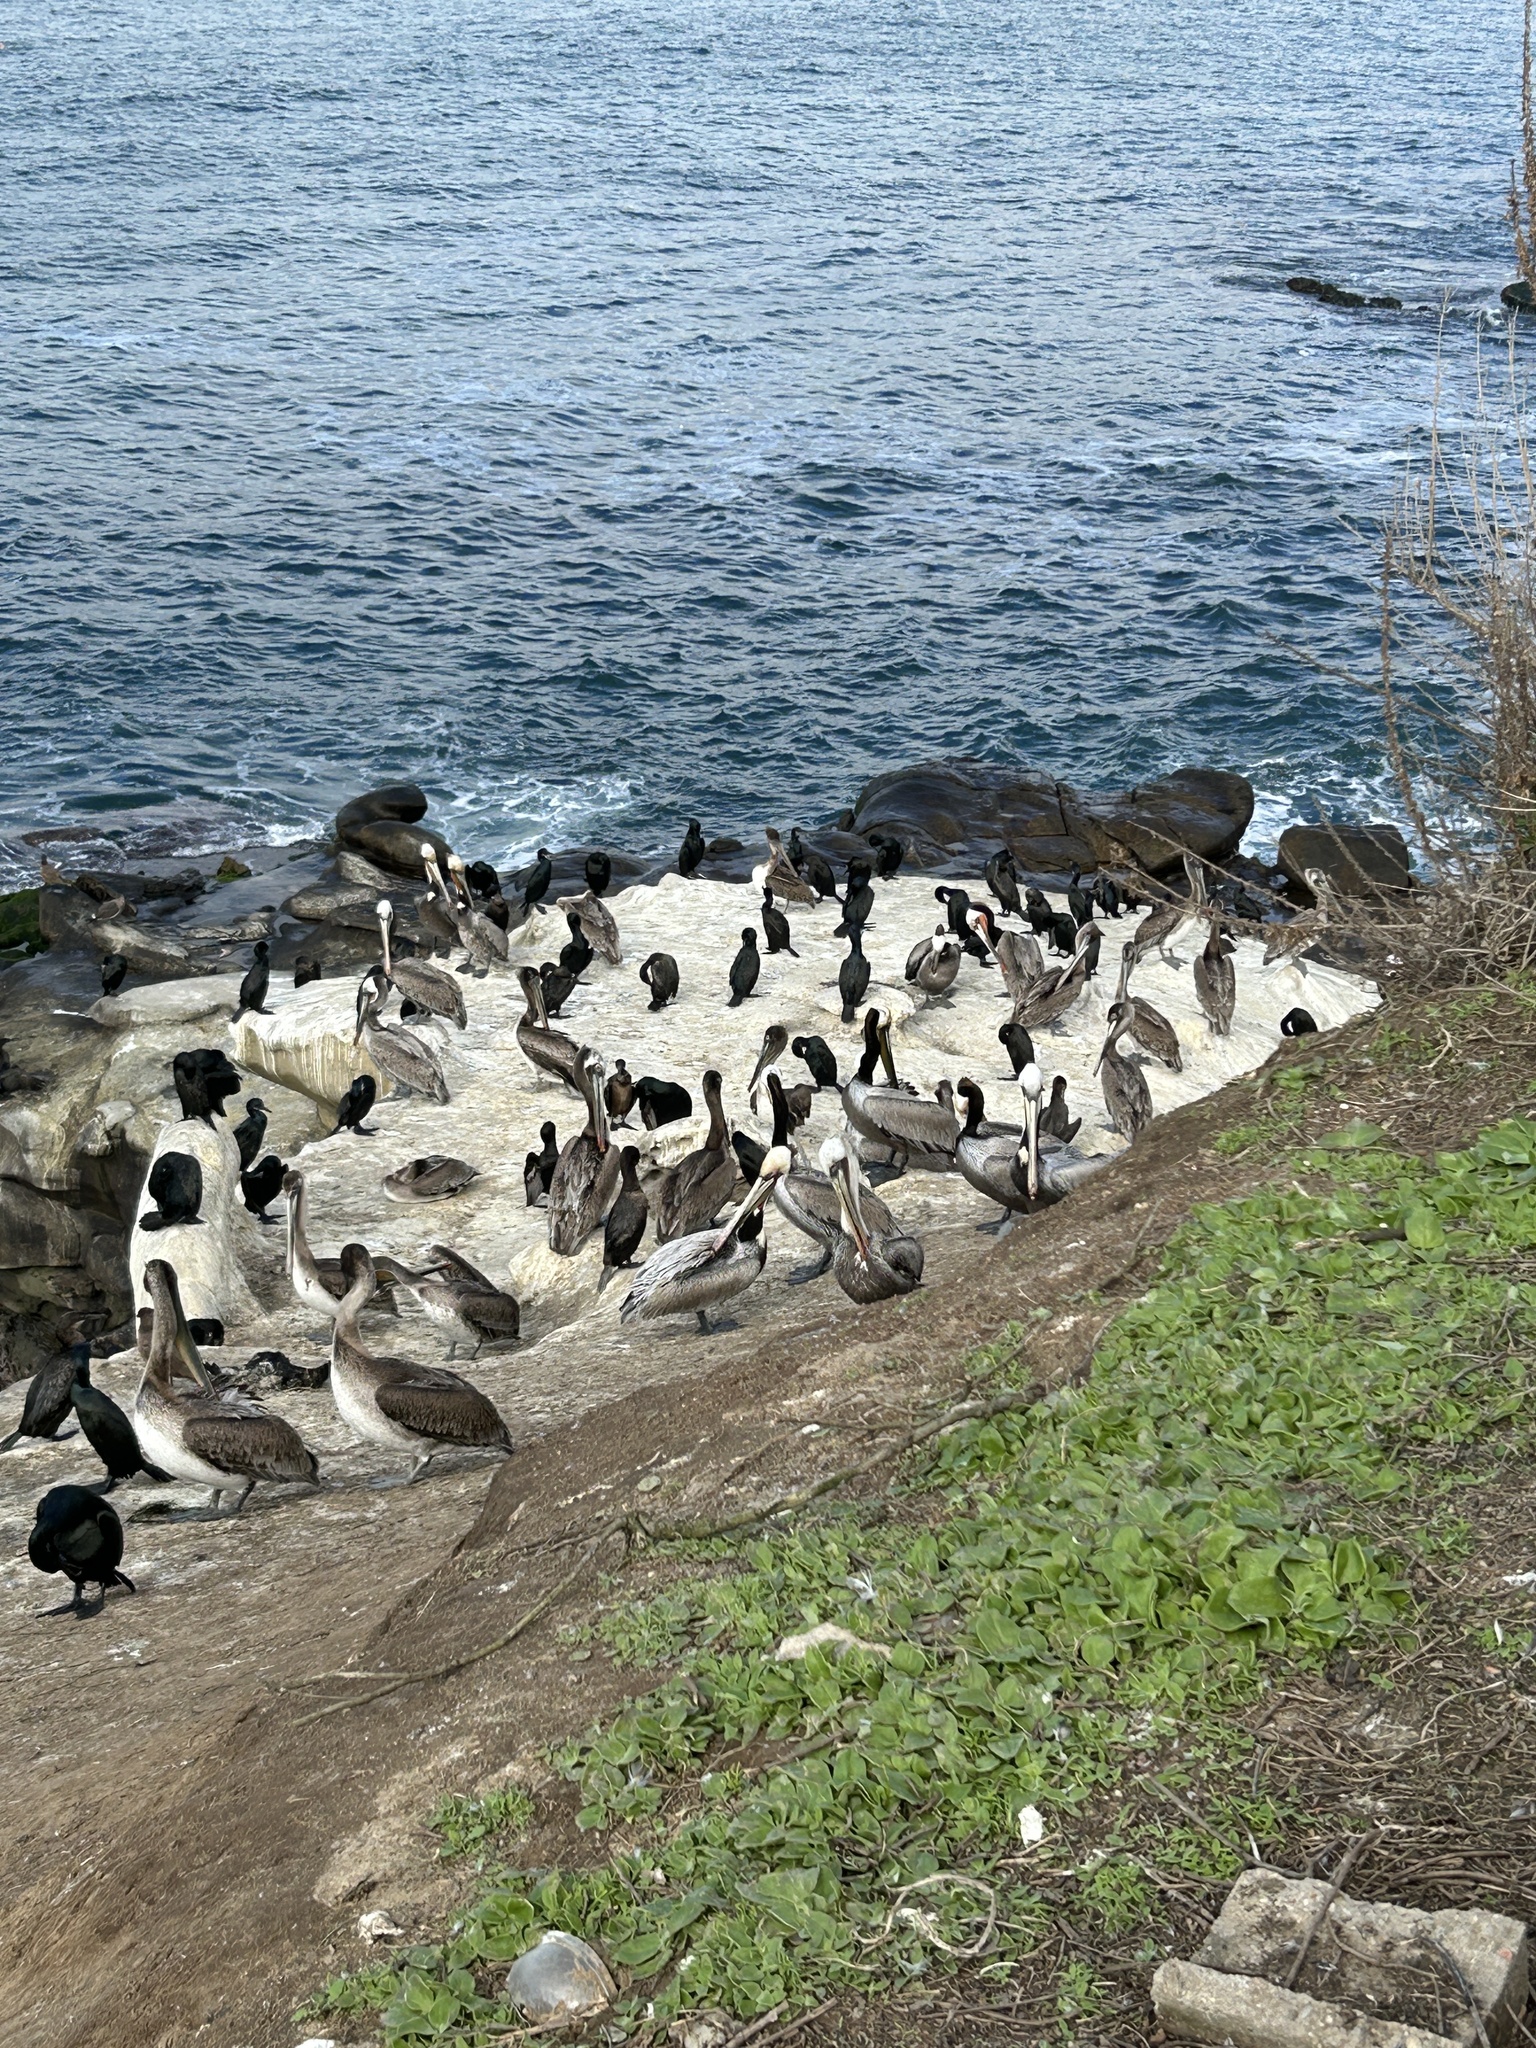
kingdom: Animalia
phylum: Chordata
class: Aves
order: Pelecaniformes
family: Pelecanidae
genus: Pelecanus
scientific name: Pelecanus occidentalis
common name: Brown pelican
